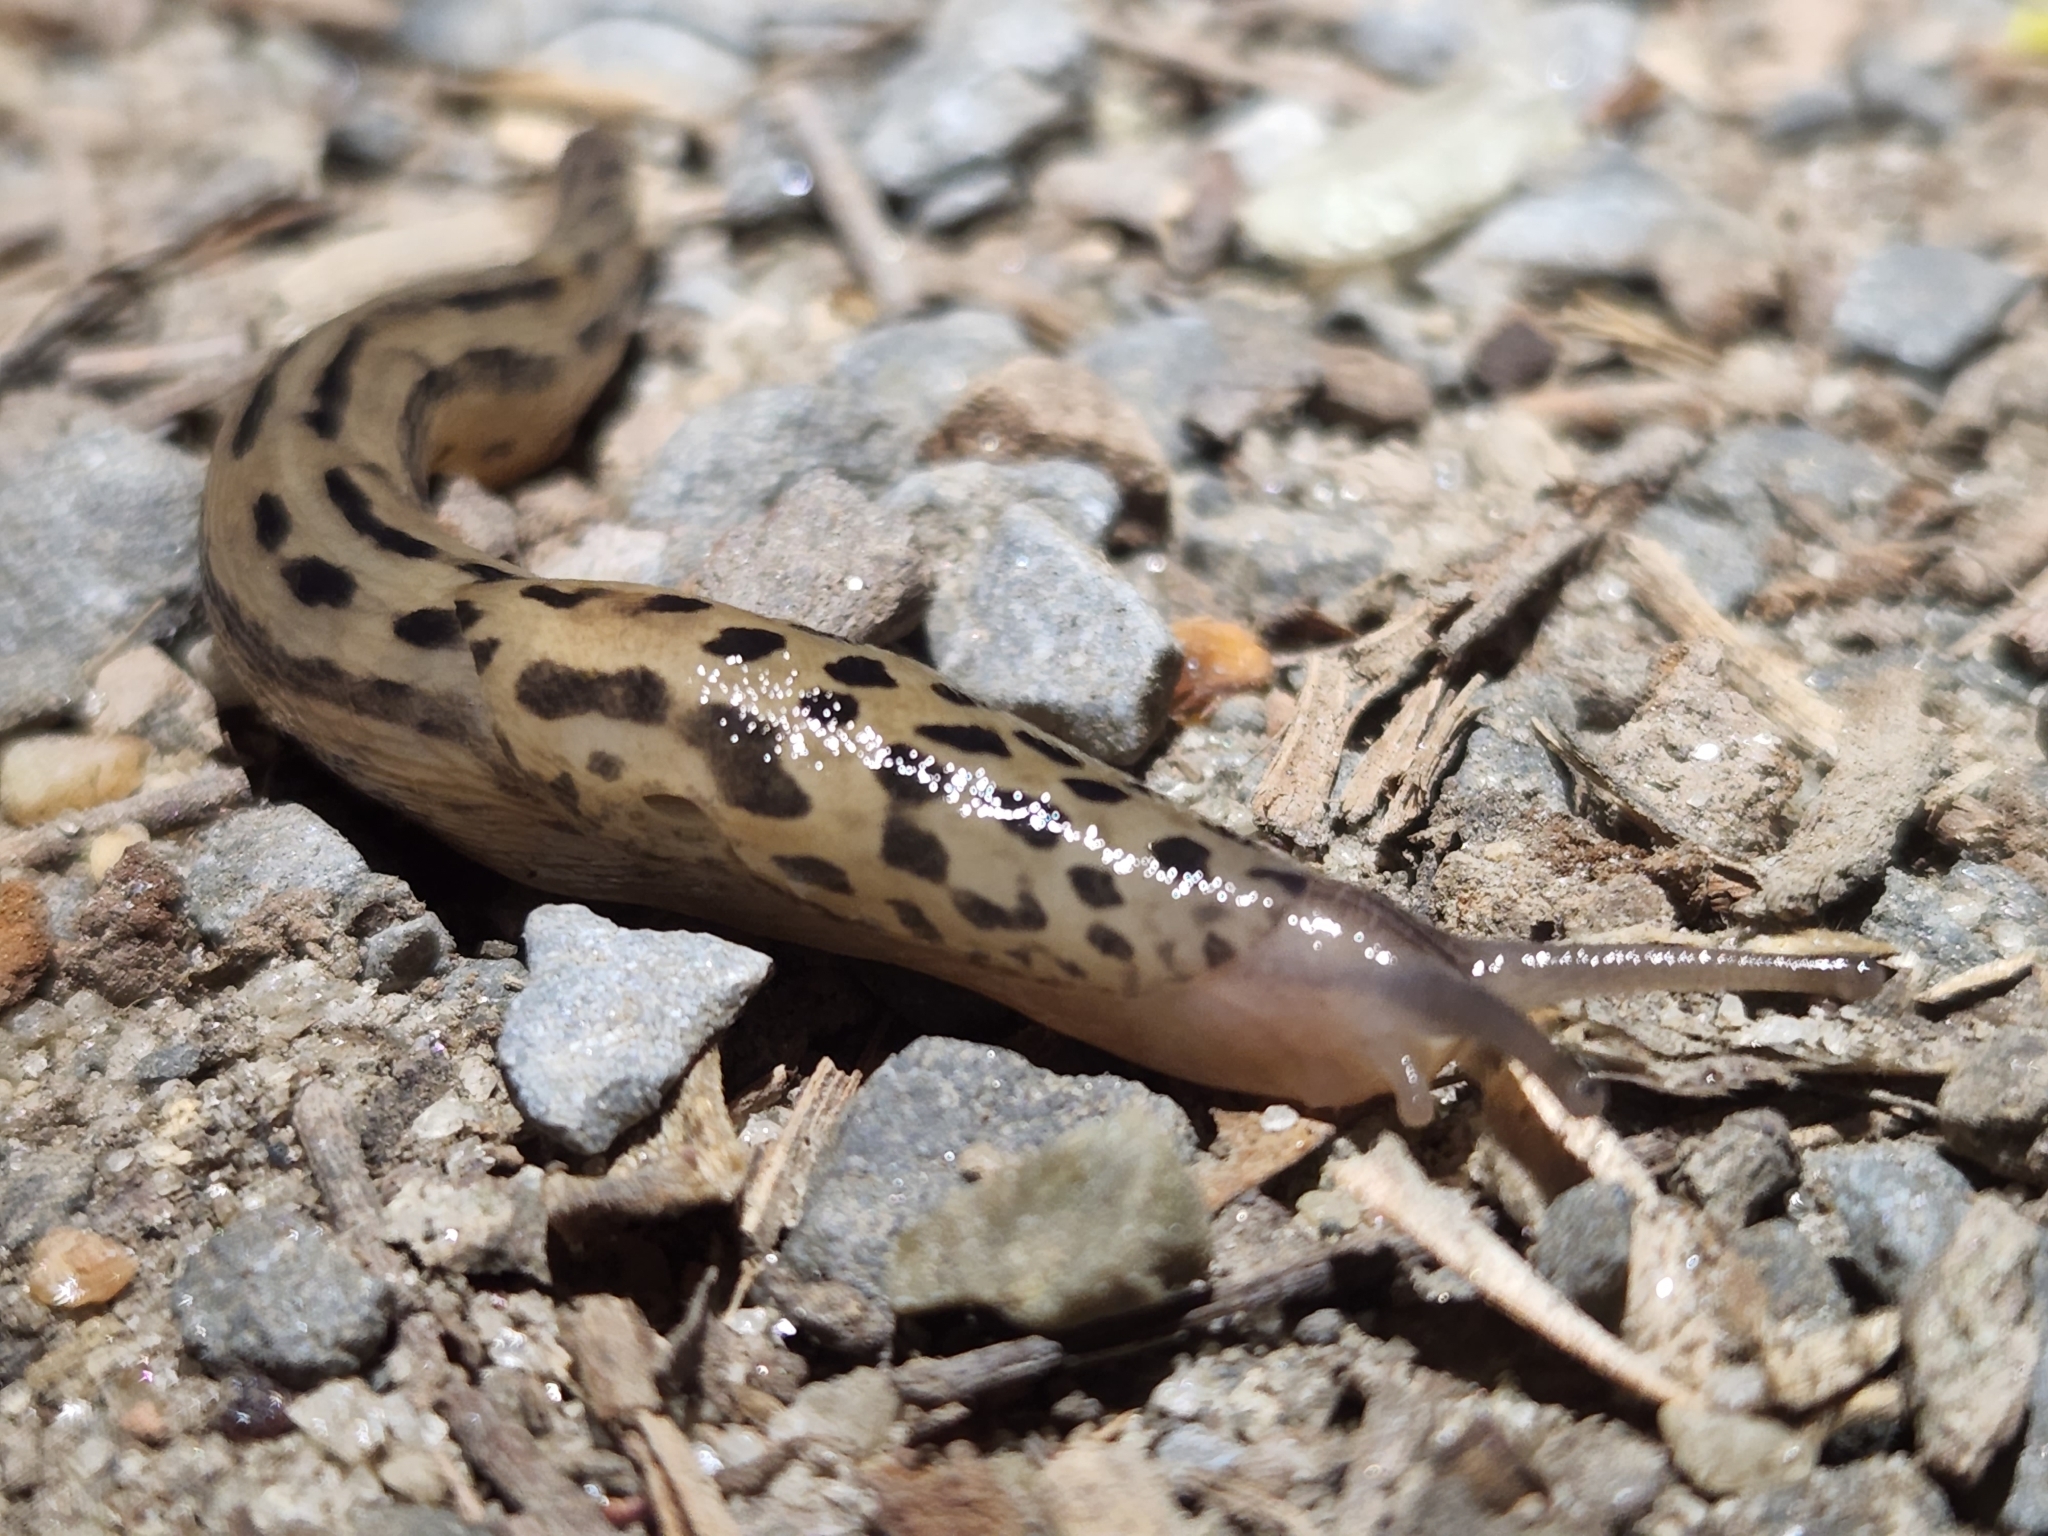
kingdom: Animalia
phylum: Mollusca
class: Gastropoda
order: Stylommatophora
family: Limacidae
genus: Limax
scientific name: Limax maximus
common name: Great grey slug
